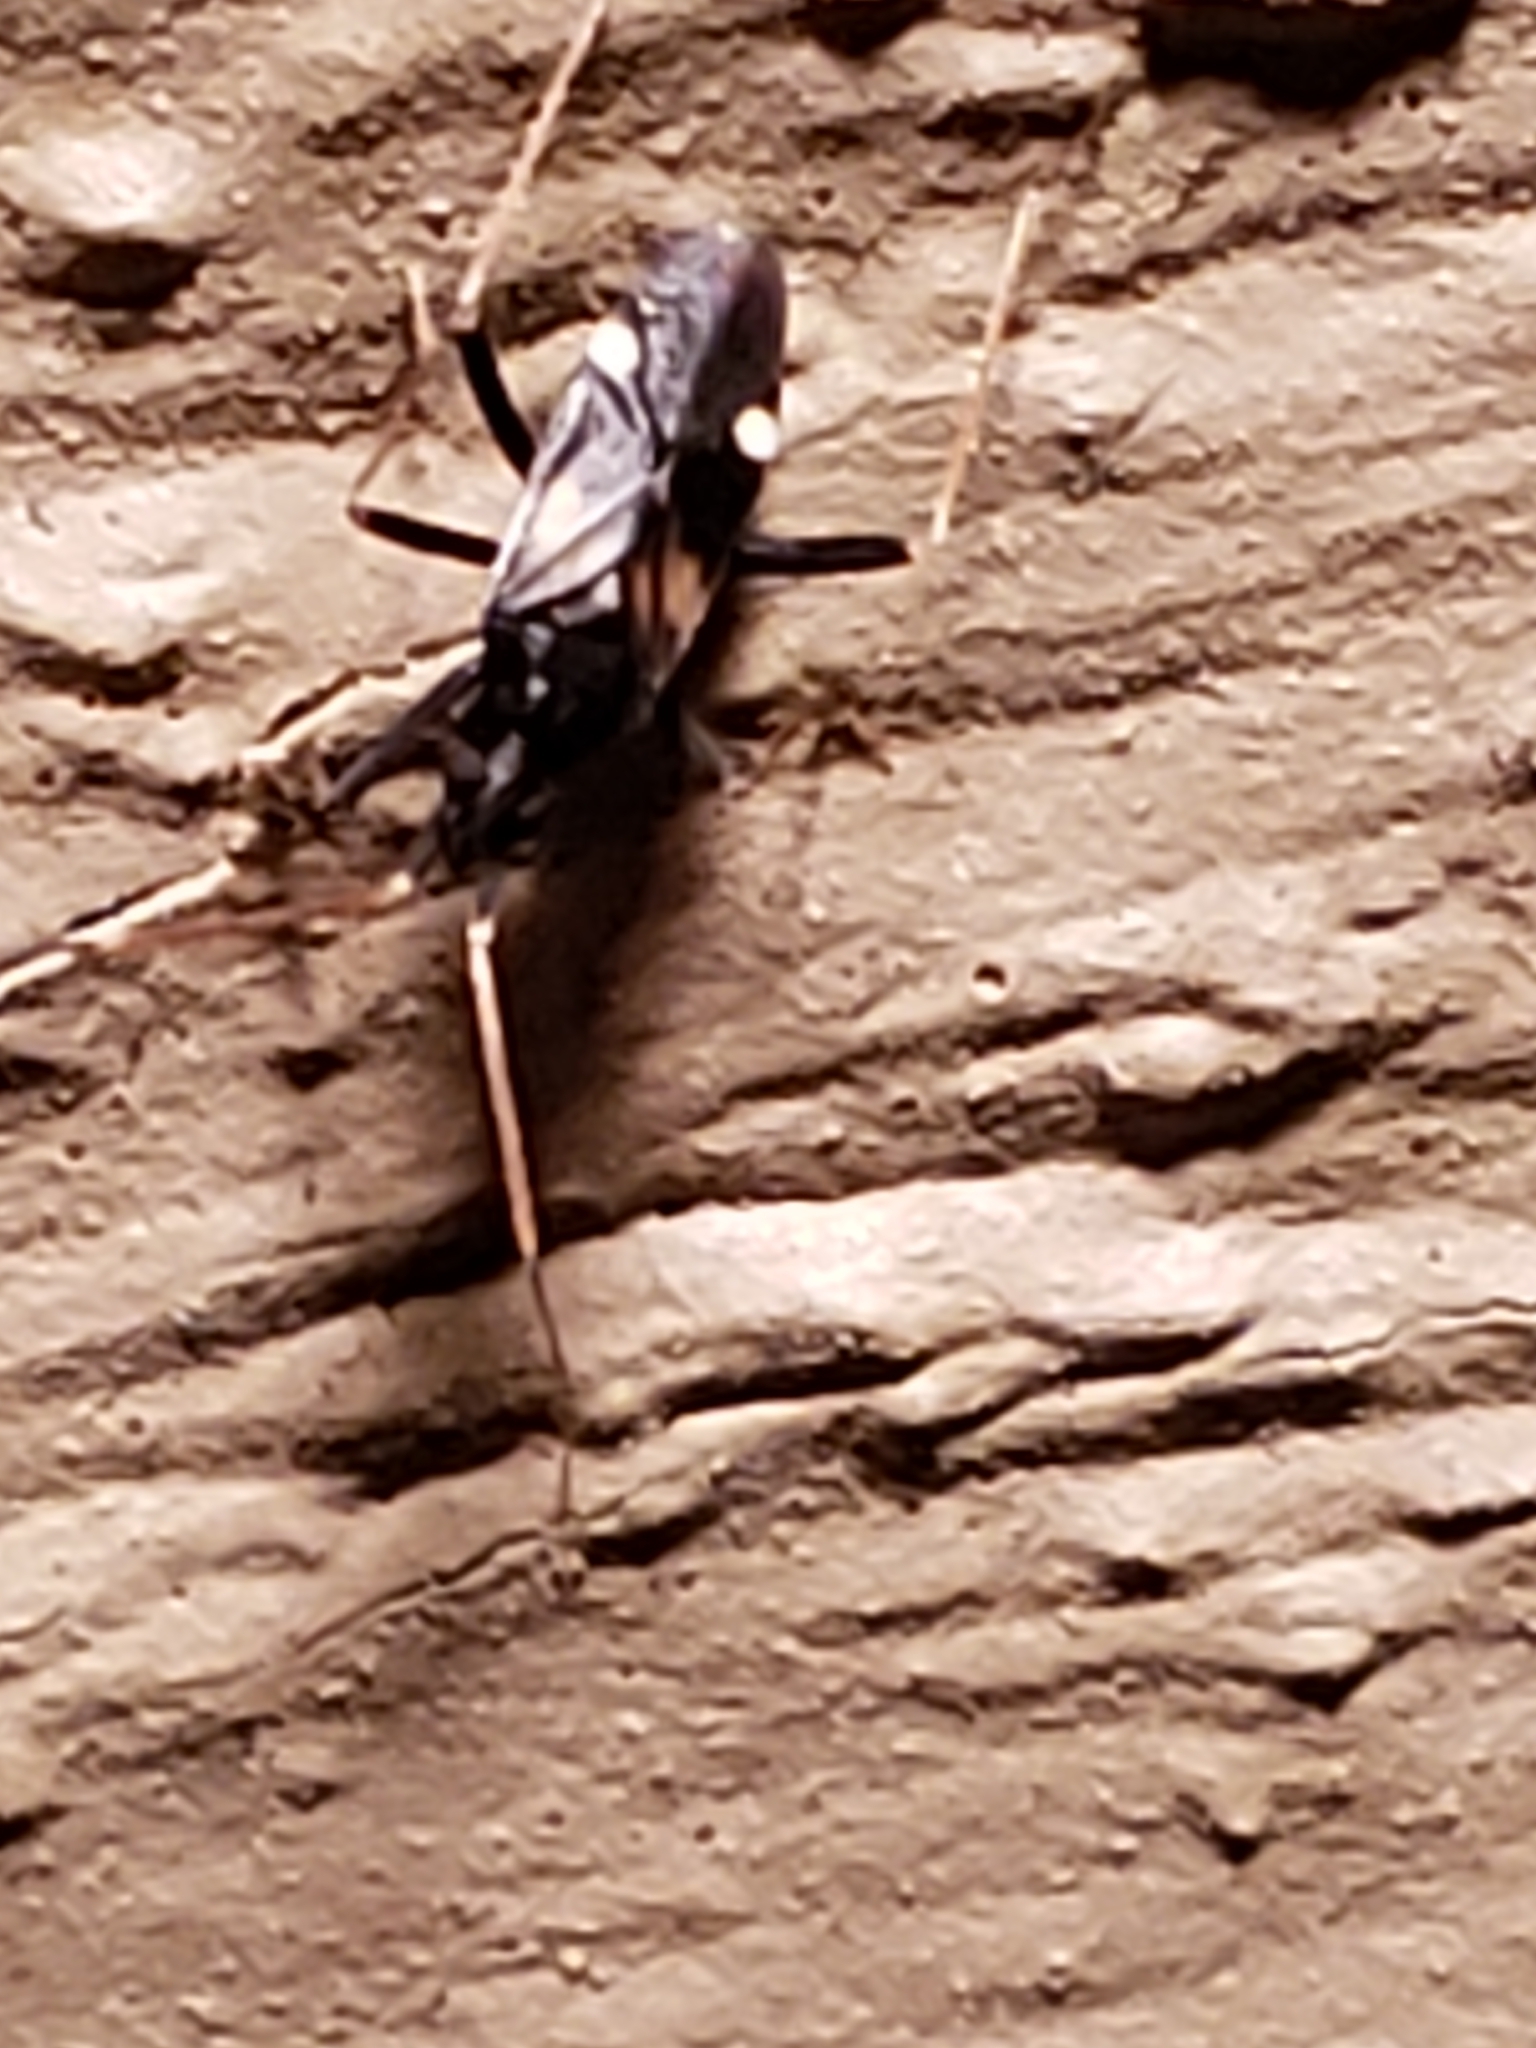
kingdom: Animalia
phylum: Arthropoda
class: Insecta
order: Hemiptera
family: Miridae
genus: Fulvius
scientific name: Fulvius slateri
